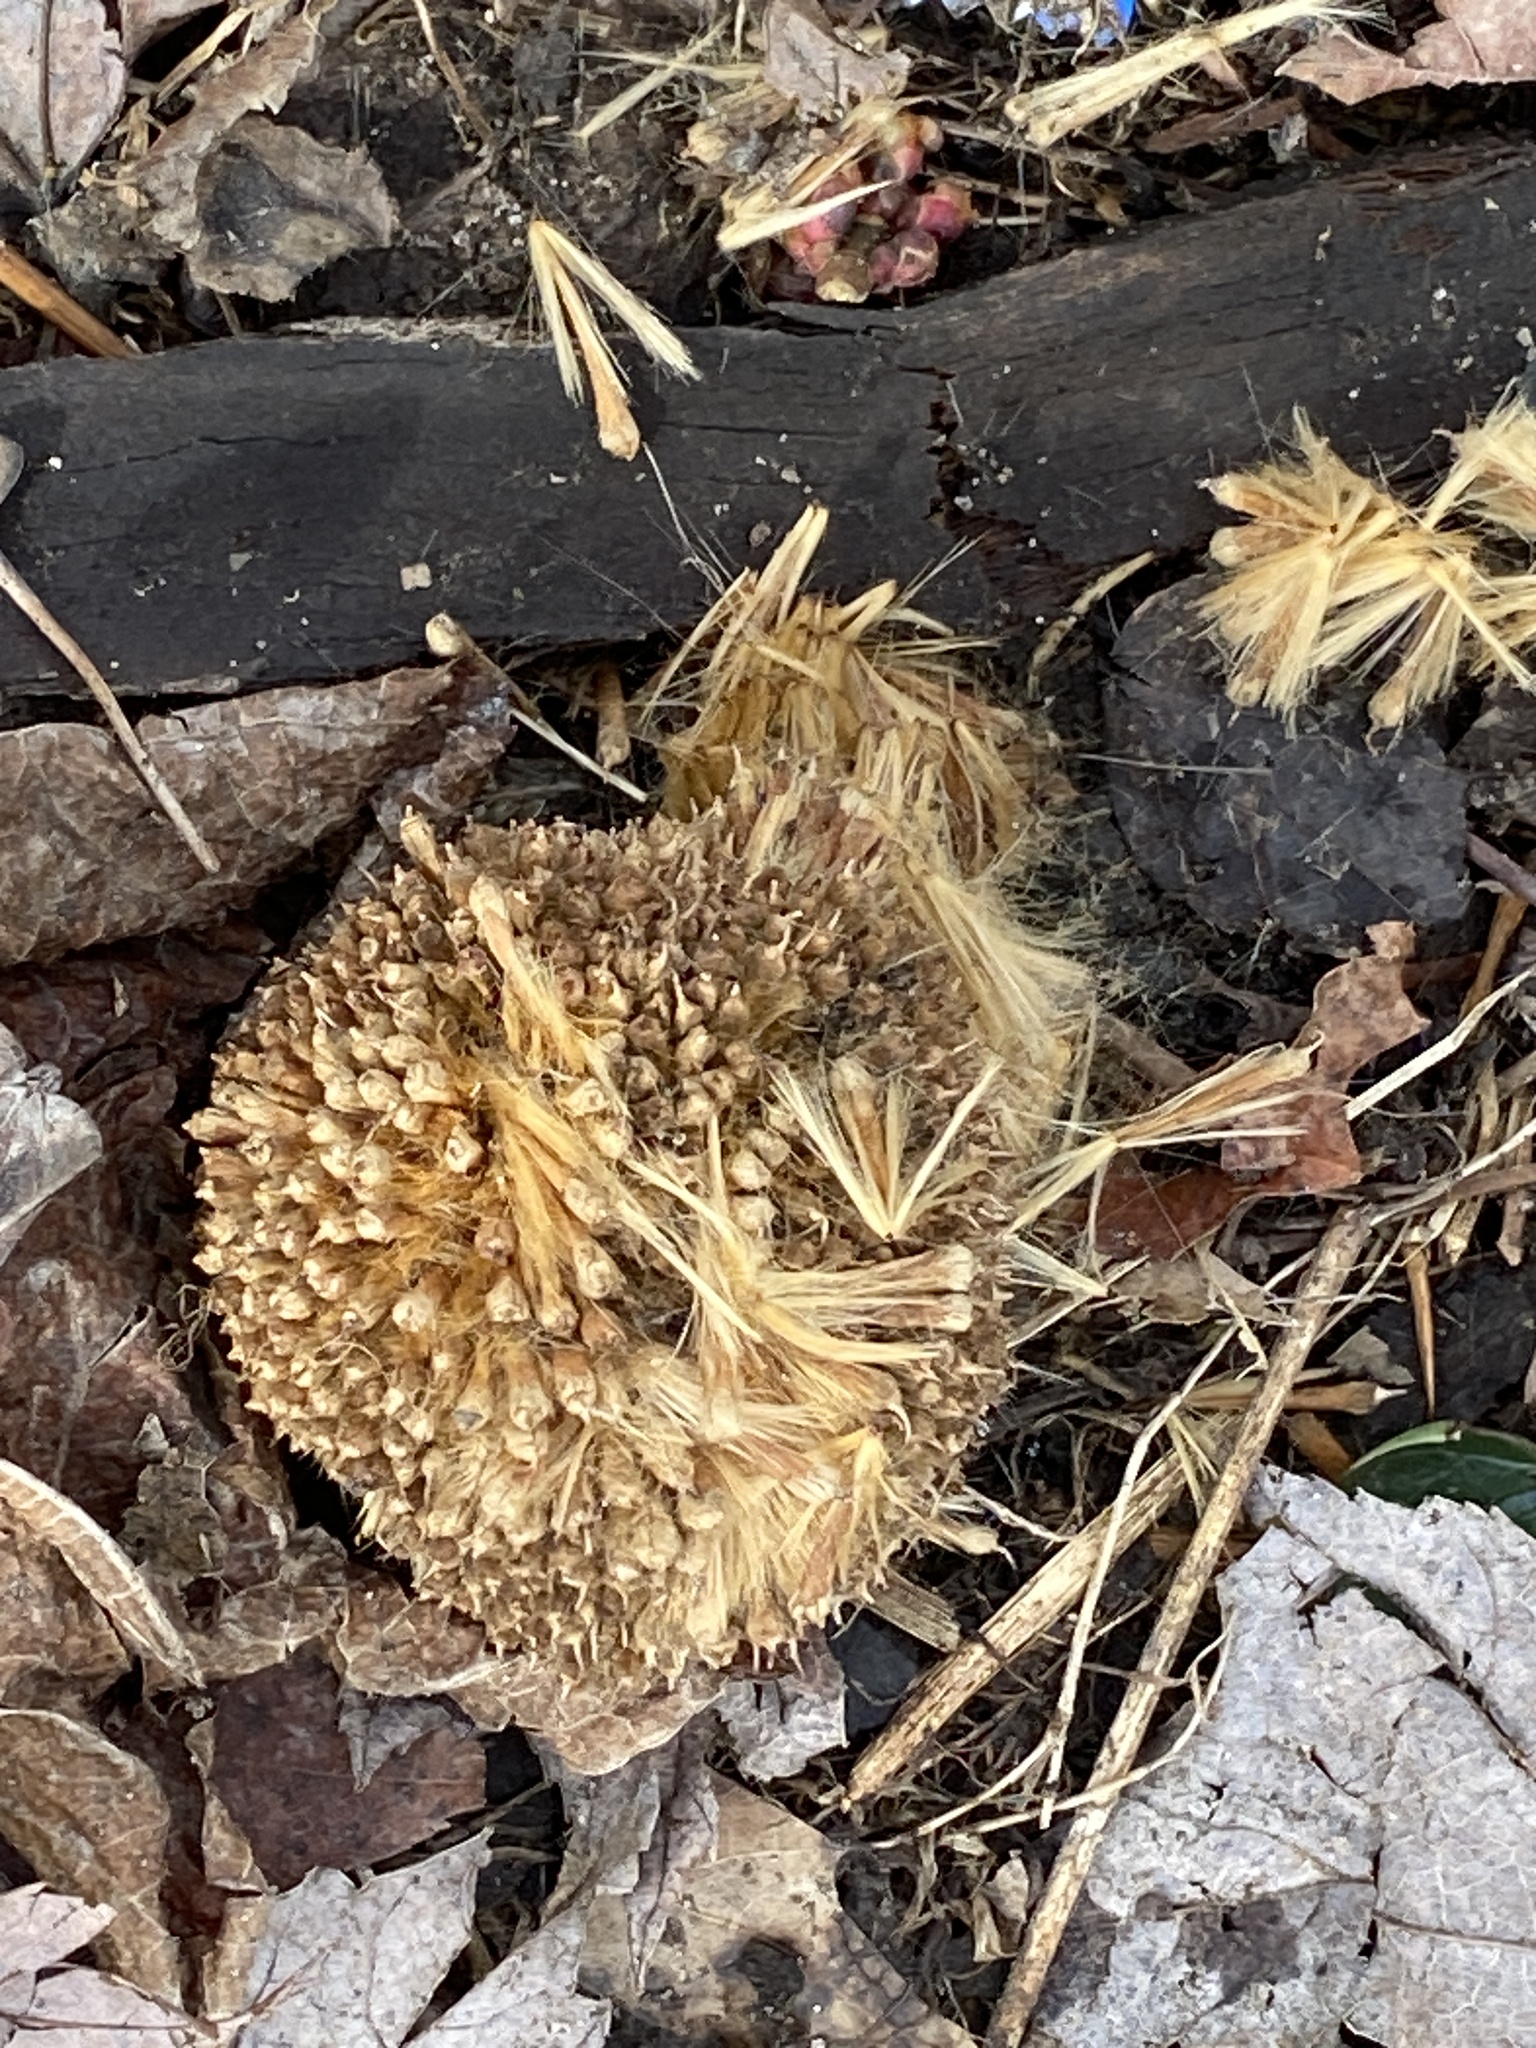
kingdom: Plantae
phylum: Tracheophyta
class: Magnoliopsida
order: Proteales
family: Platanaceae
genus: Platanus
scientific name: Platanus occidentalis
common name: American sycamore
